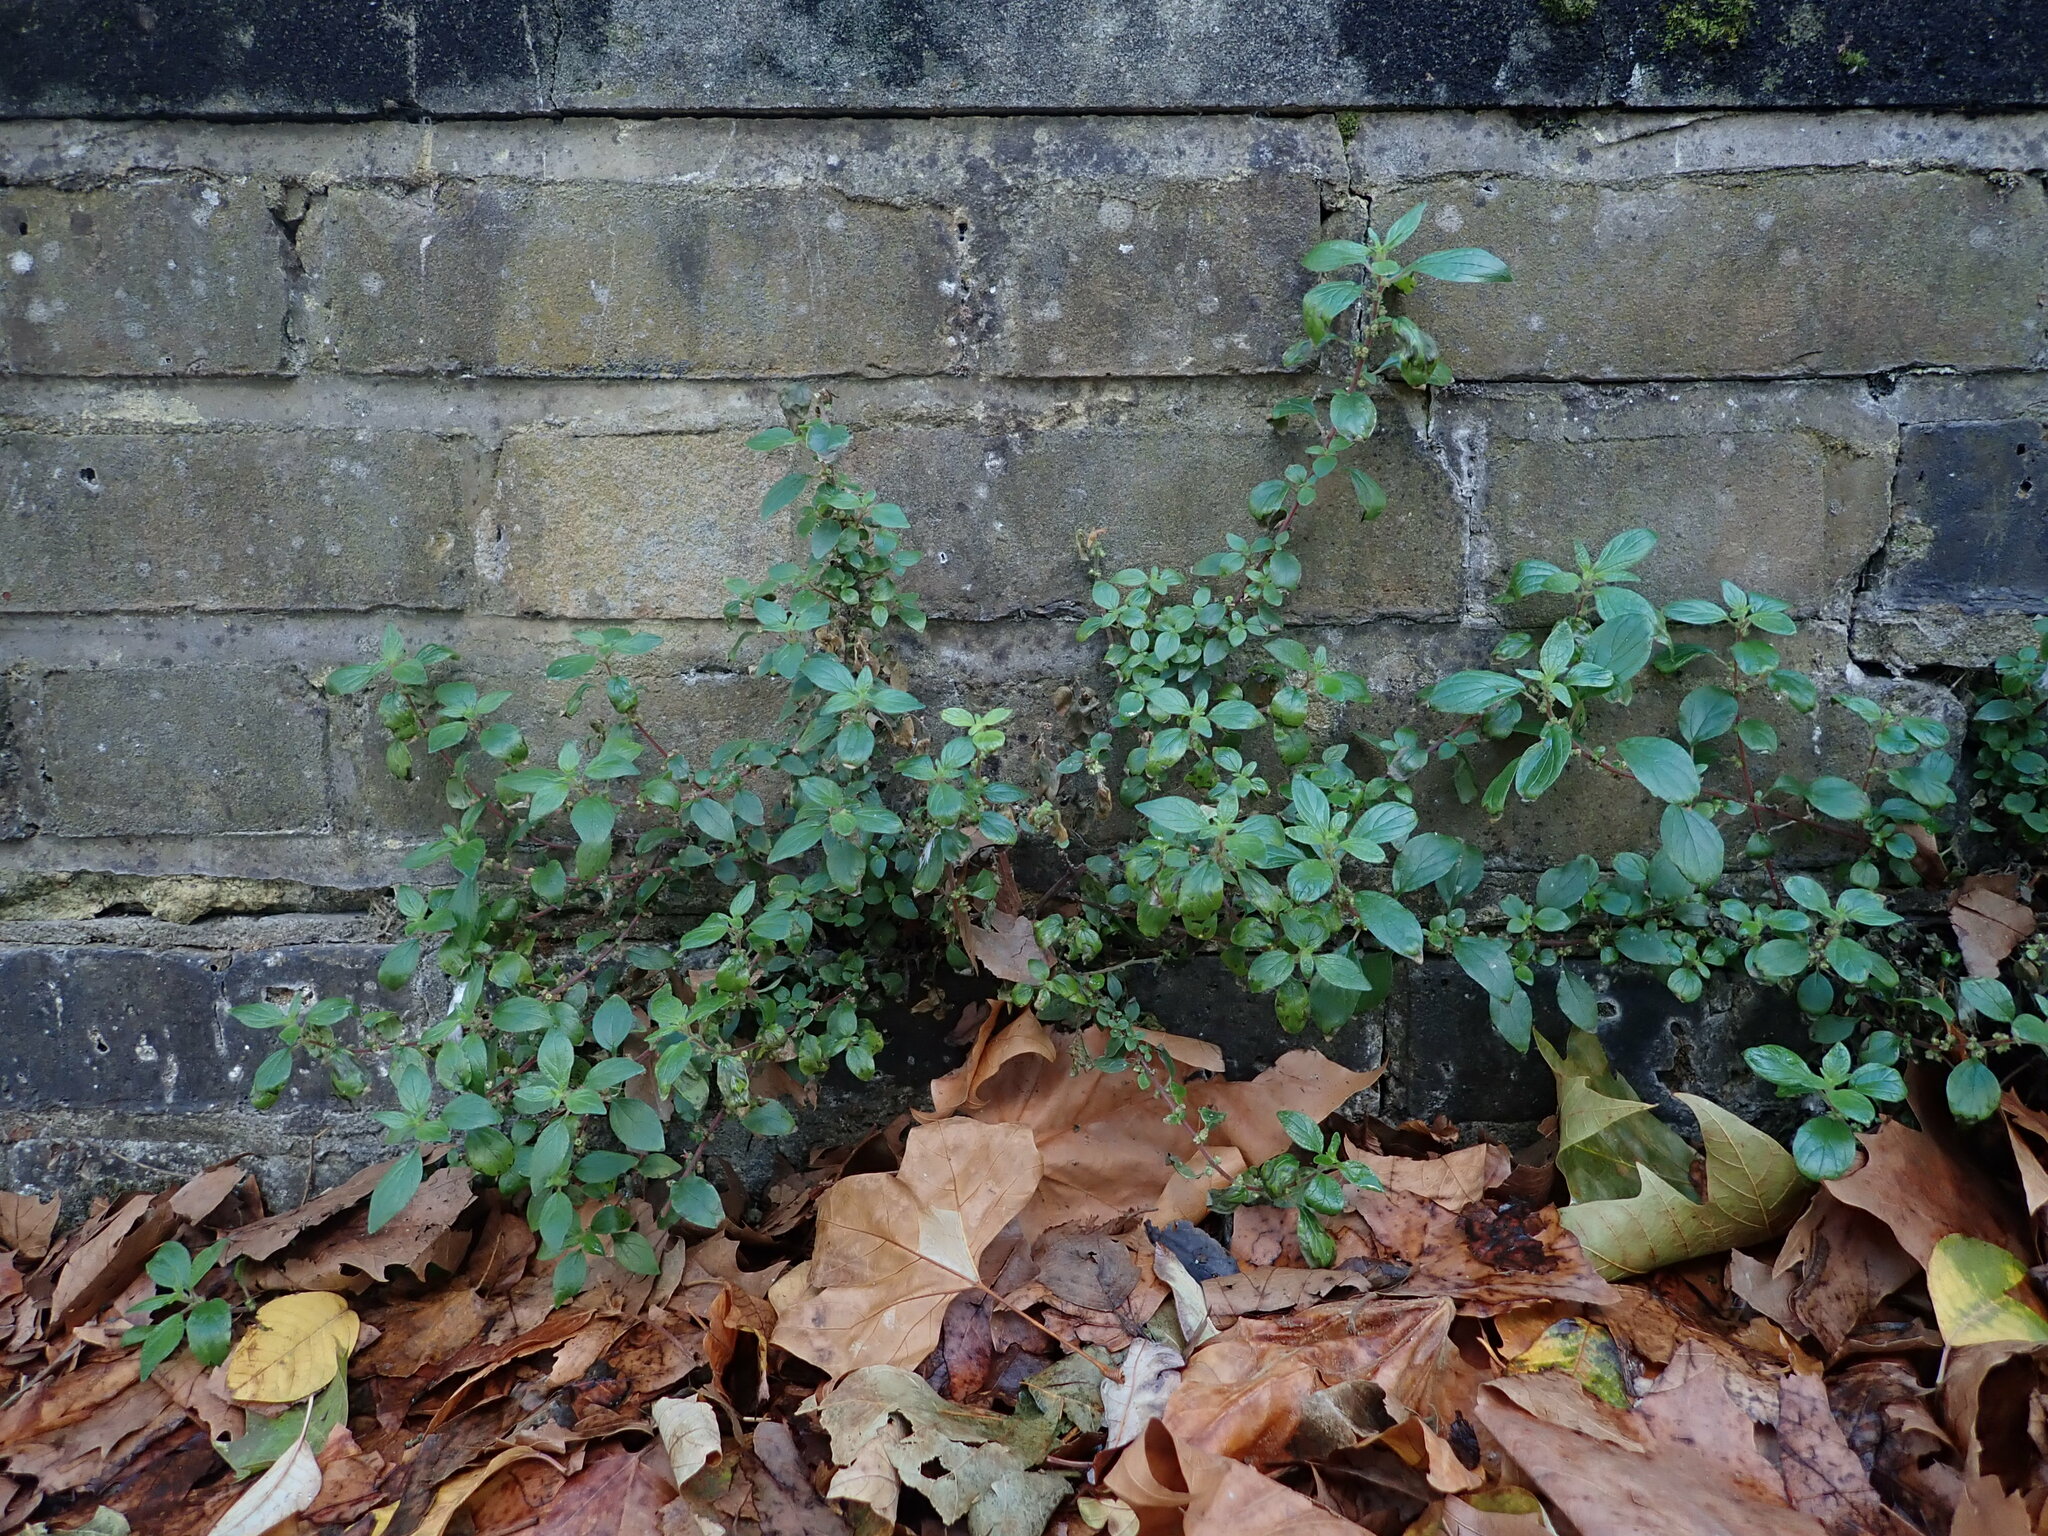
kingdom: Plantae
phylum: Tracheophyta
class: Magnoliopsida
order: Rosales
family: Urticaceae
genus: Parietaria
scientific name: Parietaria judaica
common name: Pellitory-of-the-wall
